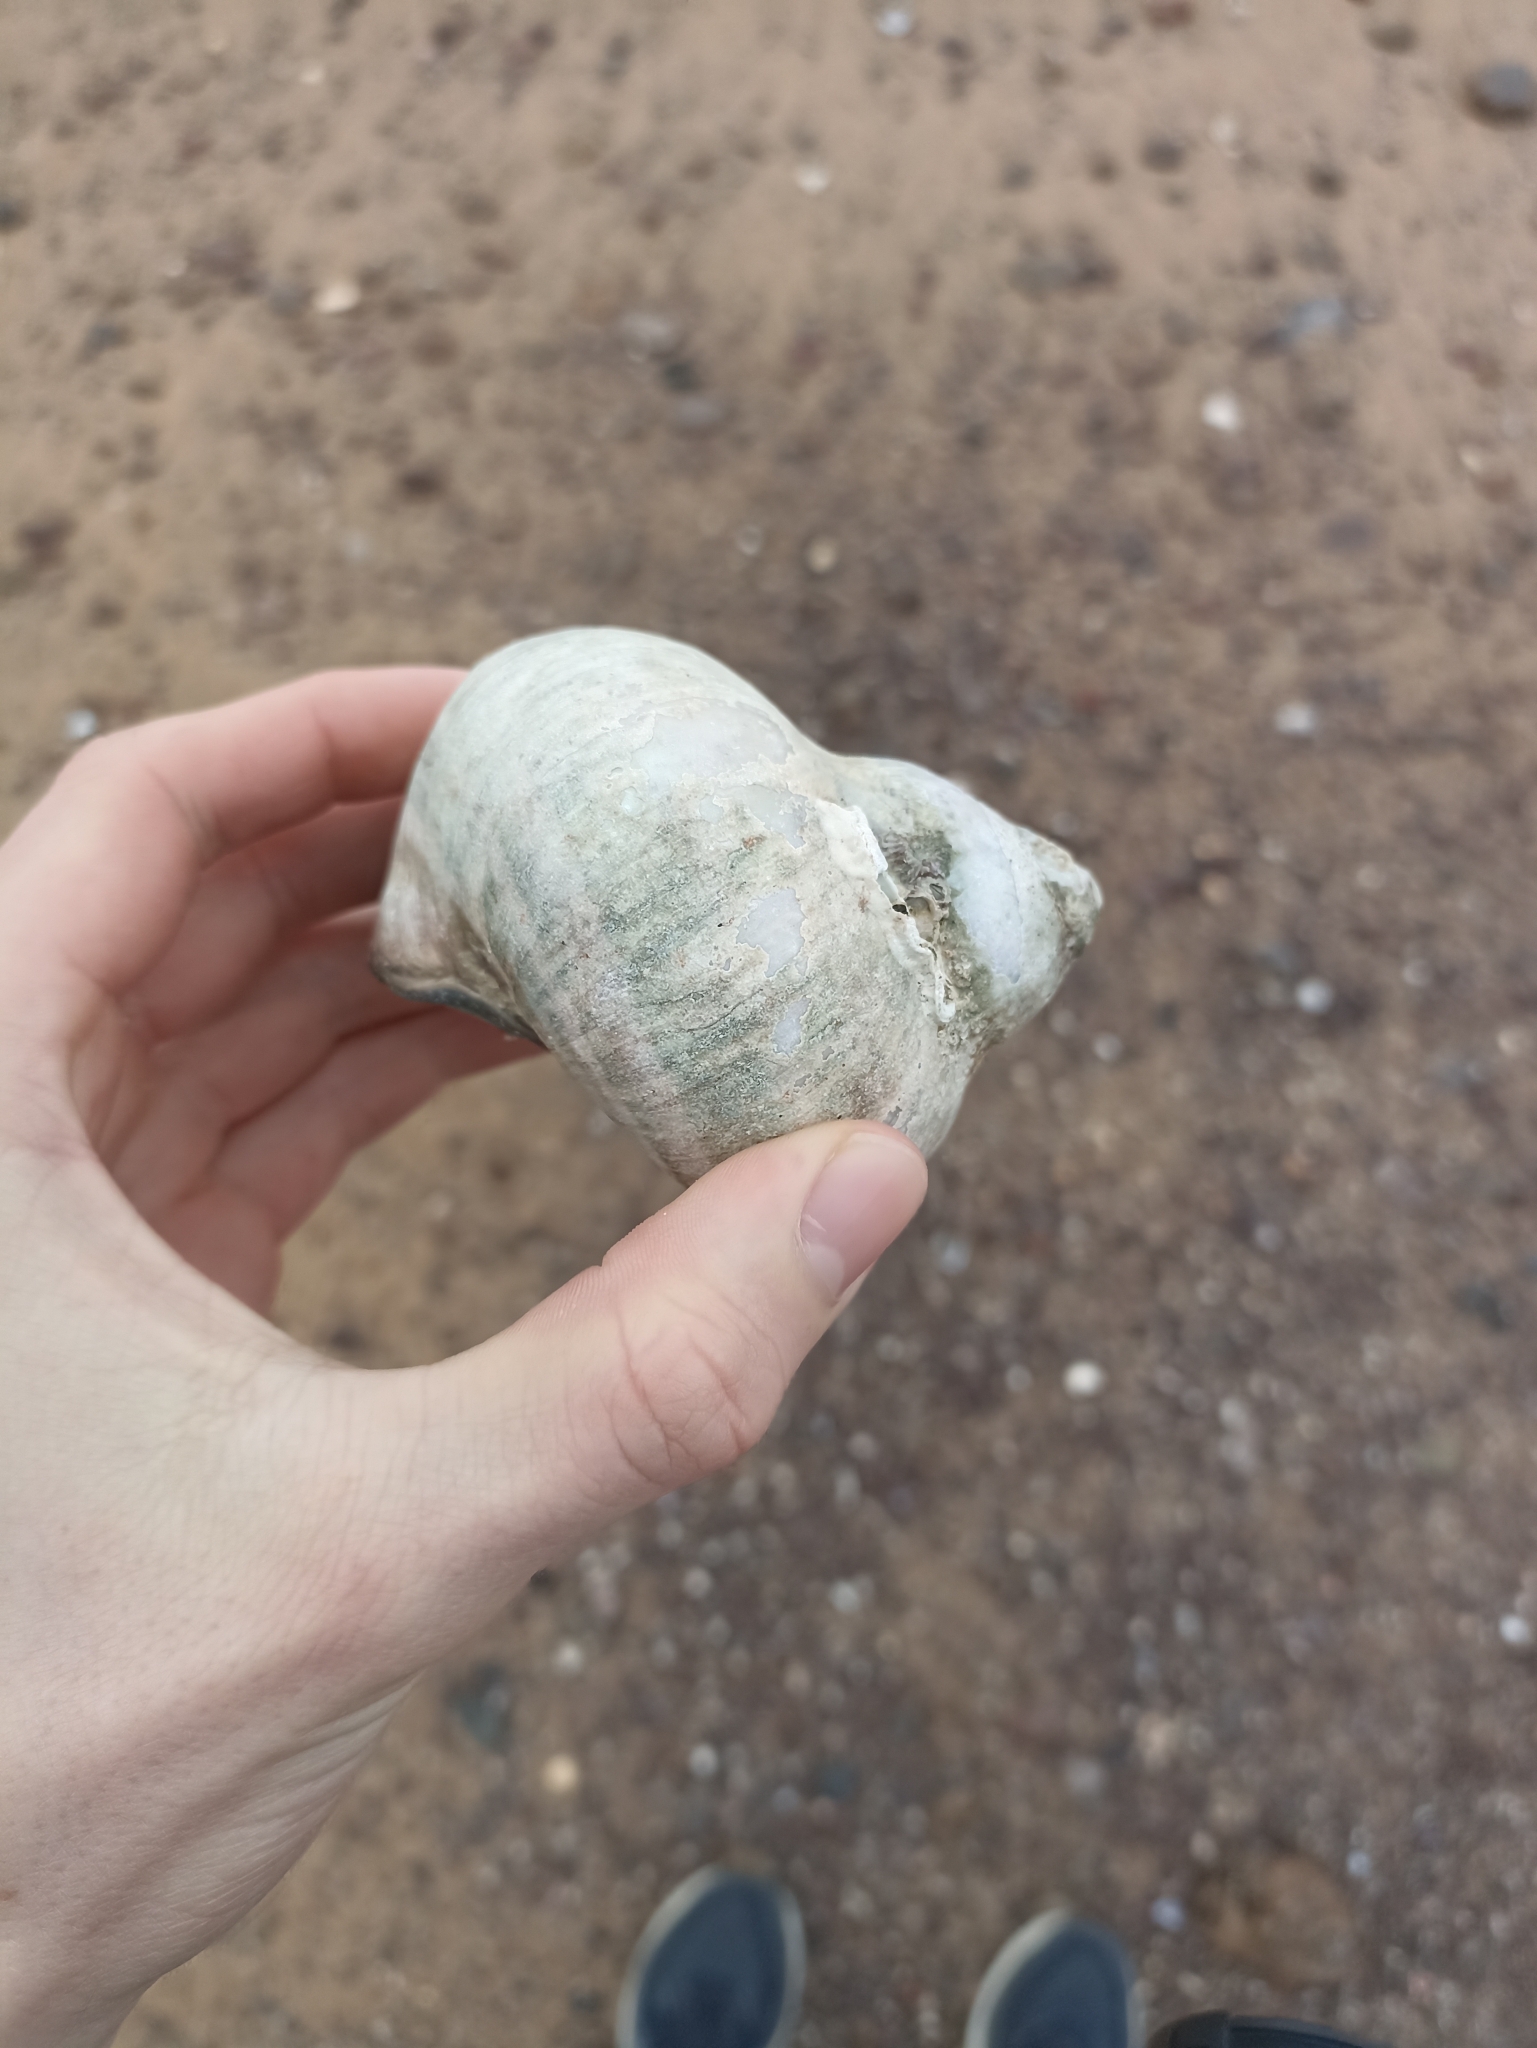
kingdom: Animalia
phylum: Mollusca
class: Gastropoda
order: Trochida
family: Turbinidae
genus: Turbo
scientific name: Turbo militaris
